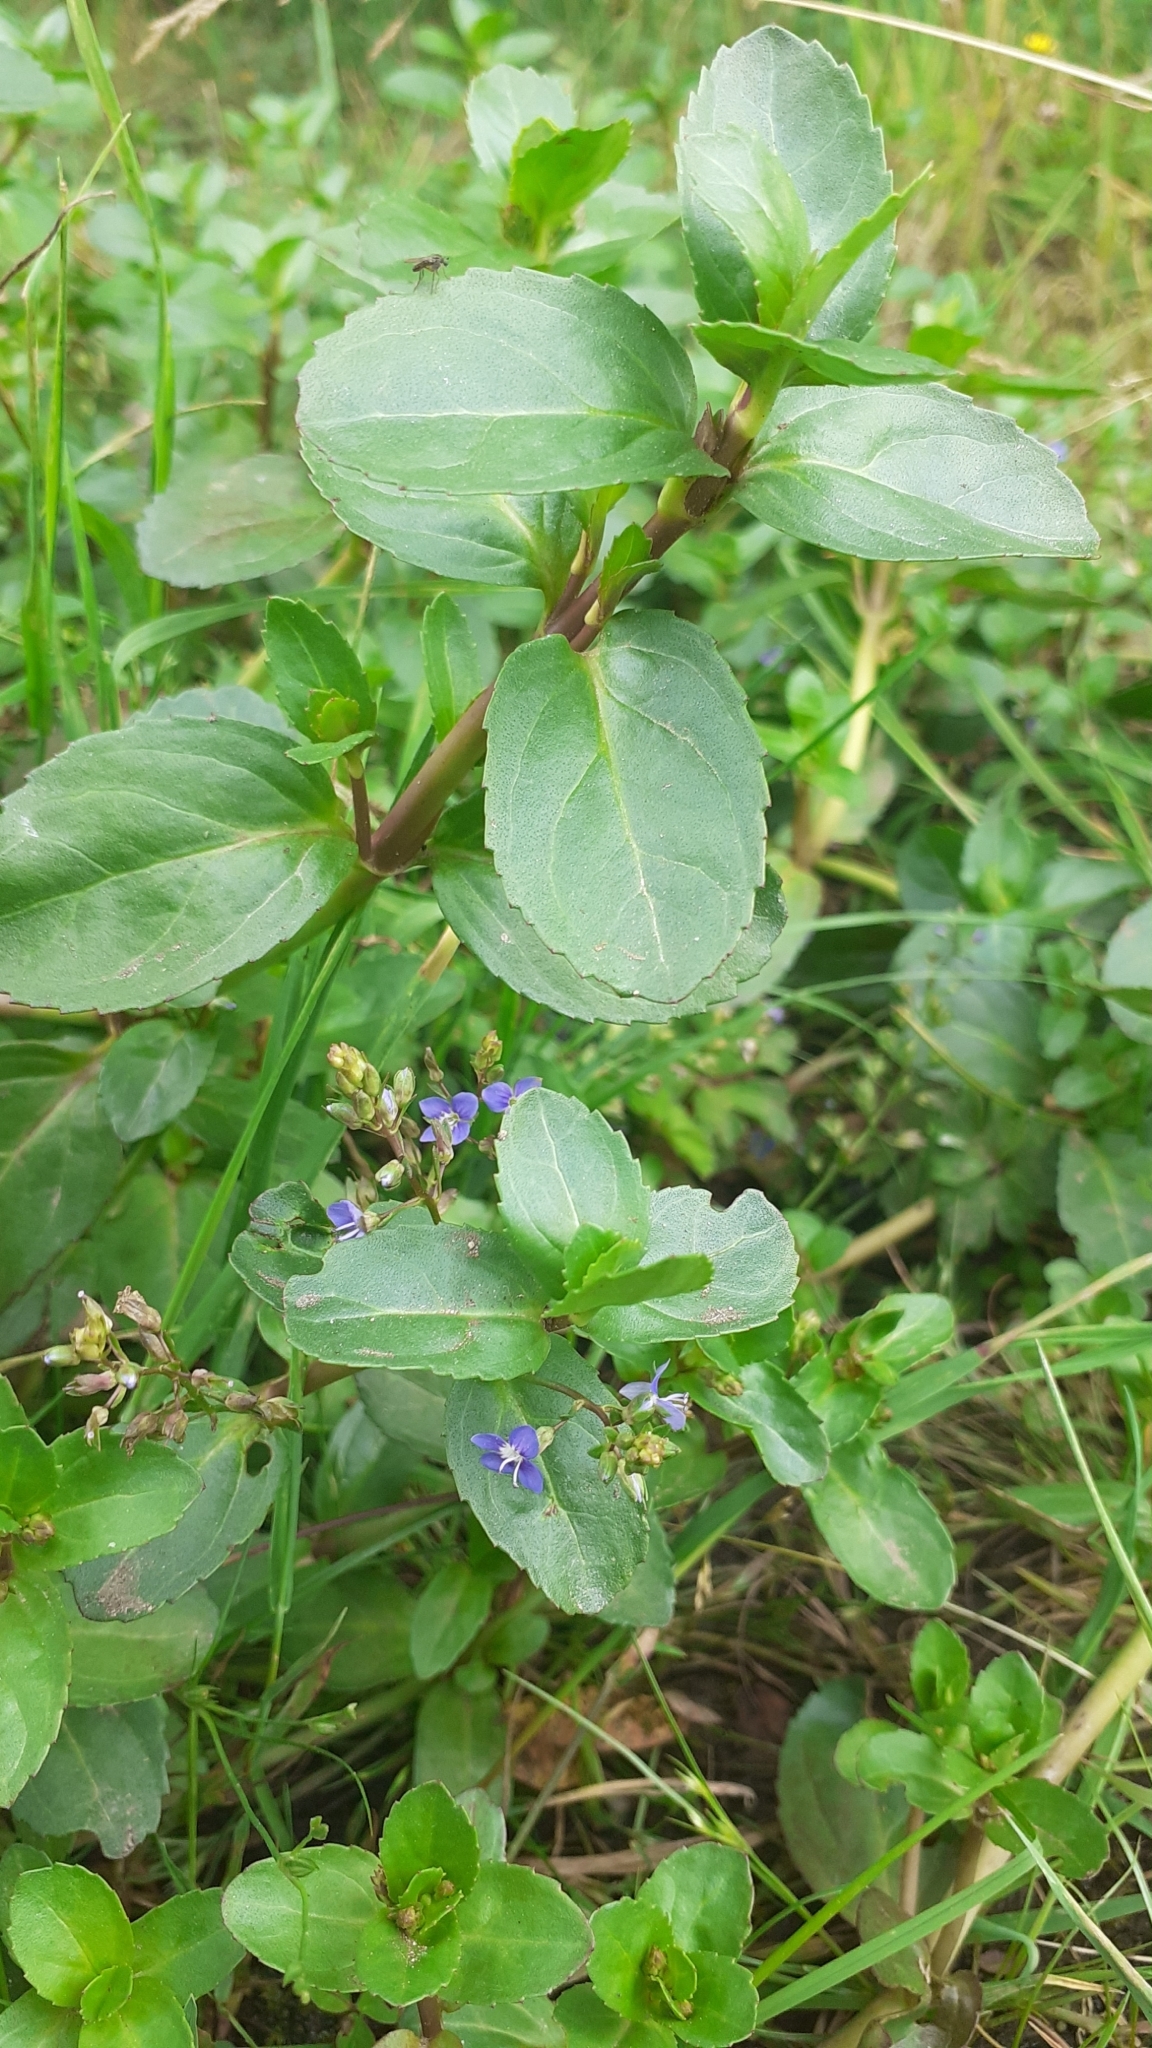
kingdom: Plantae
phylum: Tracheophyta
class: Magnoliopsida
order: Lamiales
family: Plantaginaceae
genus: Veronica
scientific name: Veronica beccabunga
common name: Brooklime
